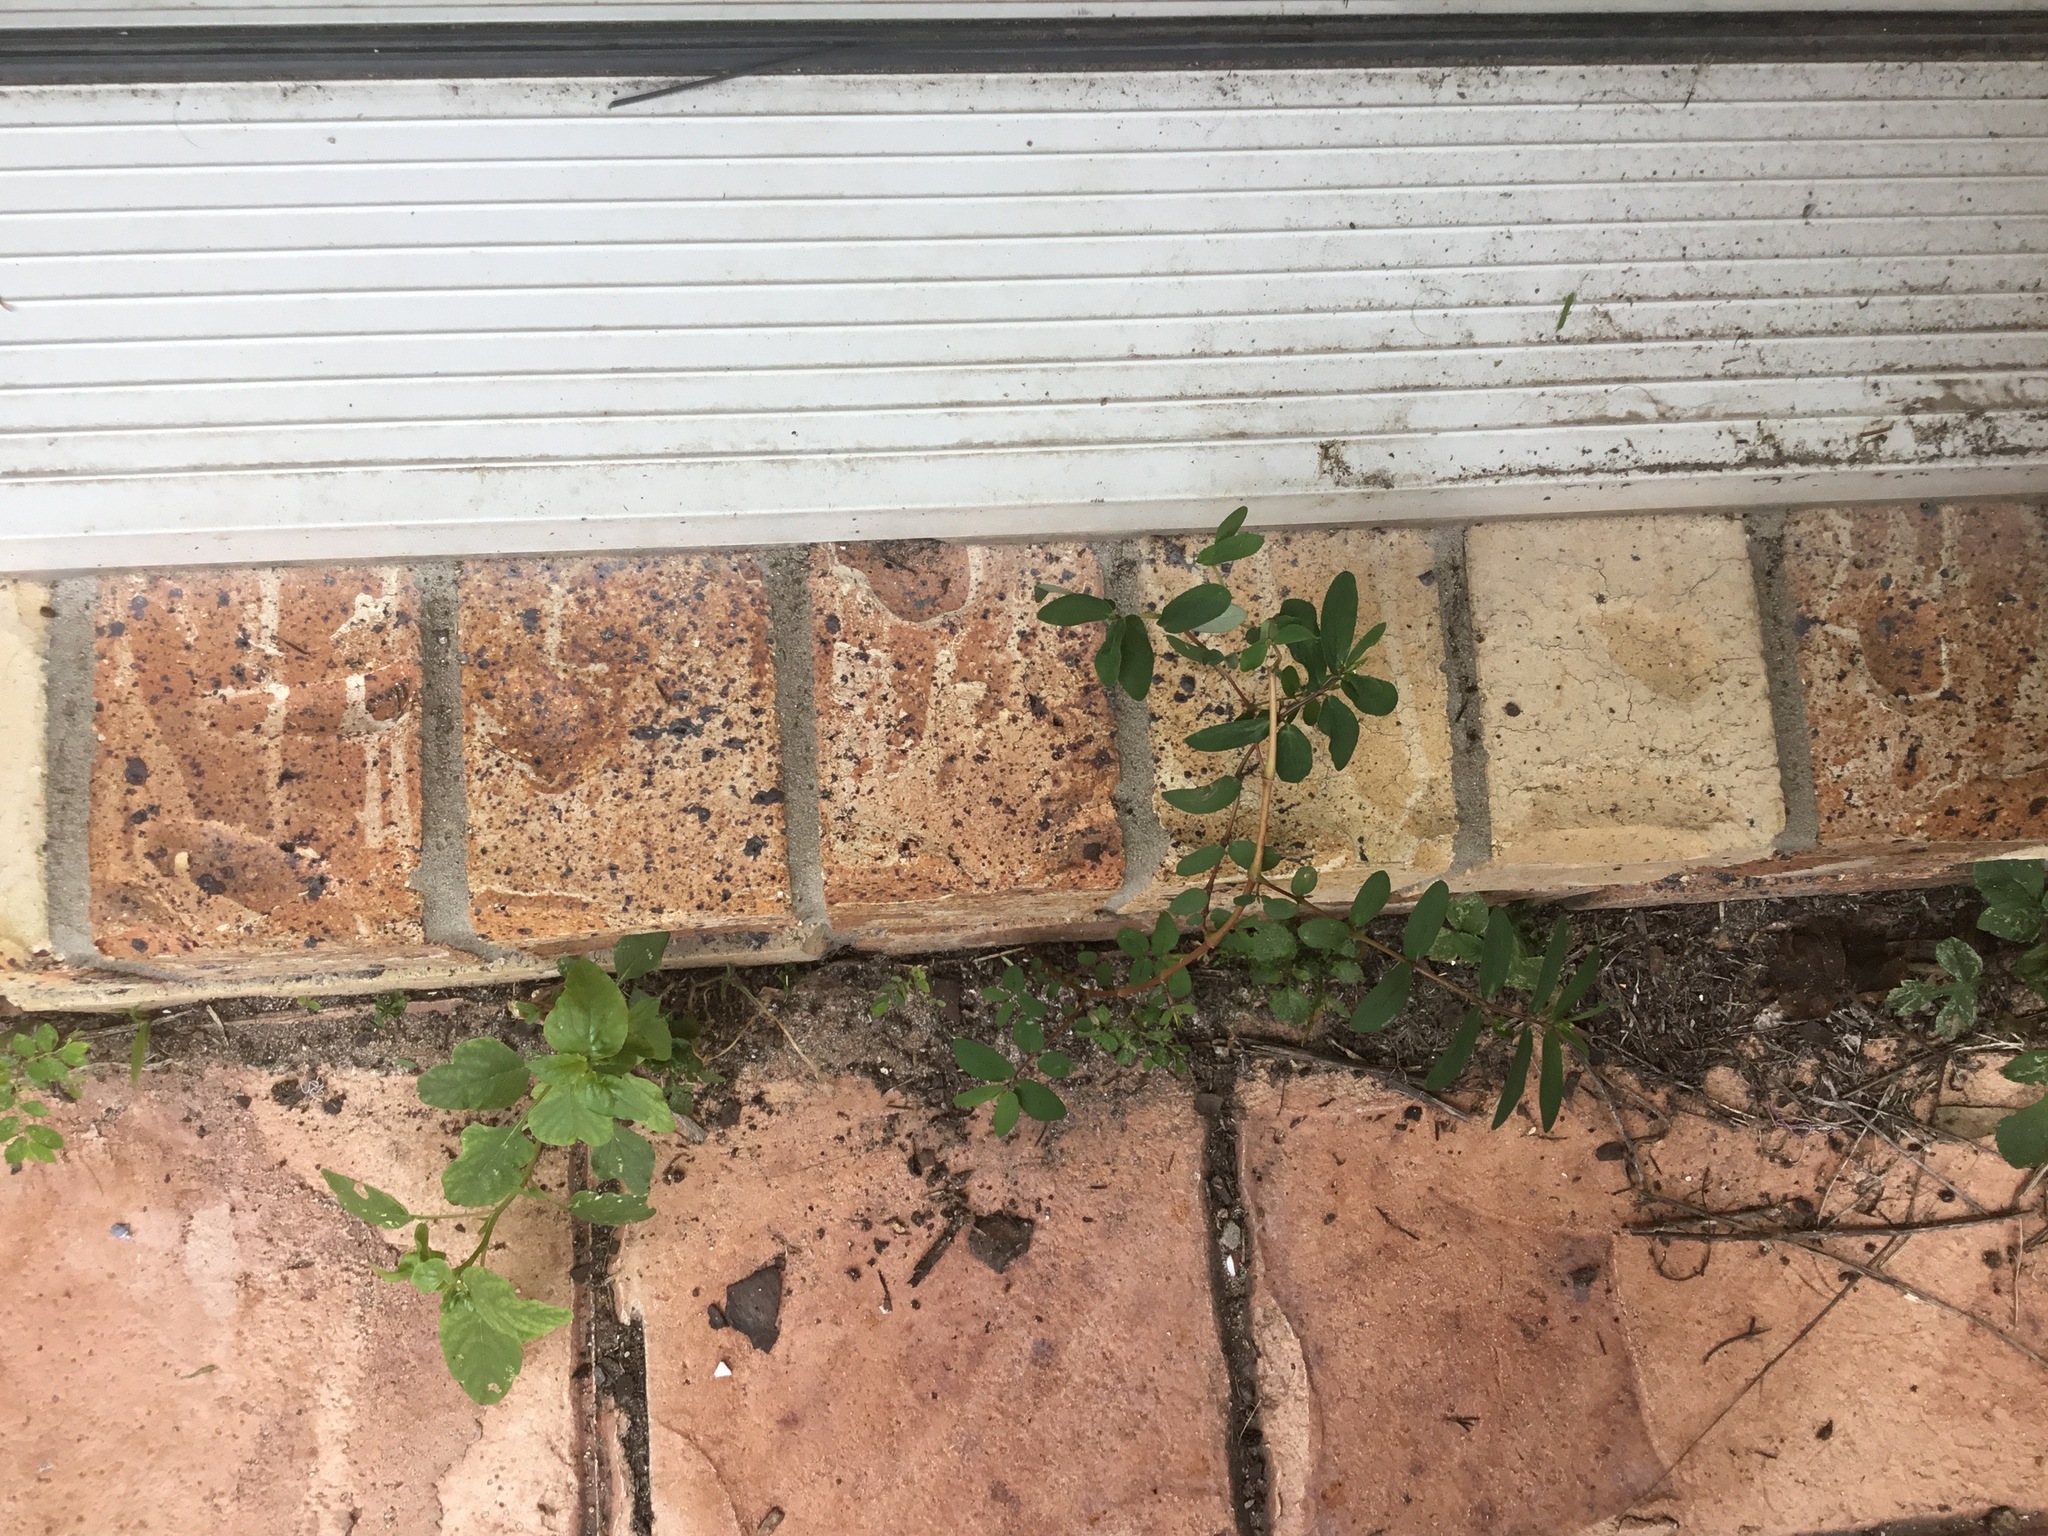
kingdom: Plantae
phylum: Tracheophyta
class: Magnoliopsida
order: Malpighiales
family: Euphorbiaceae
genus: Euphorbia
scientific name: Euphorbia hyssopifolia
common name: Hyssopleaf sandmat
